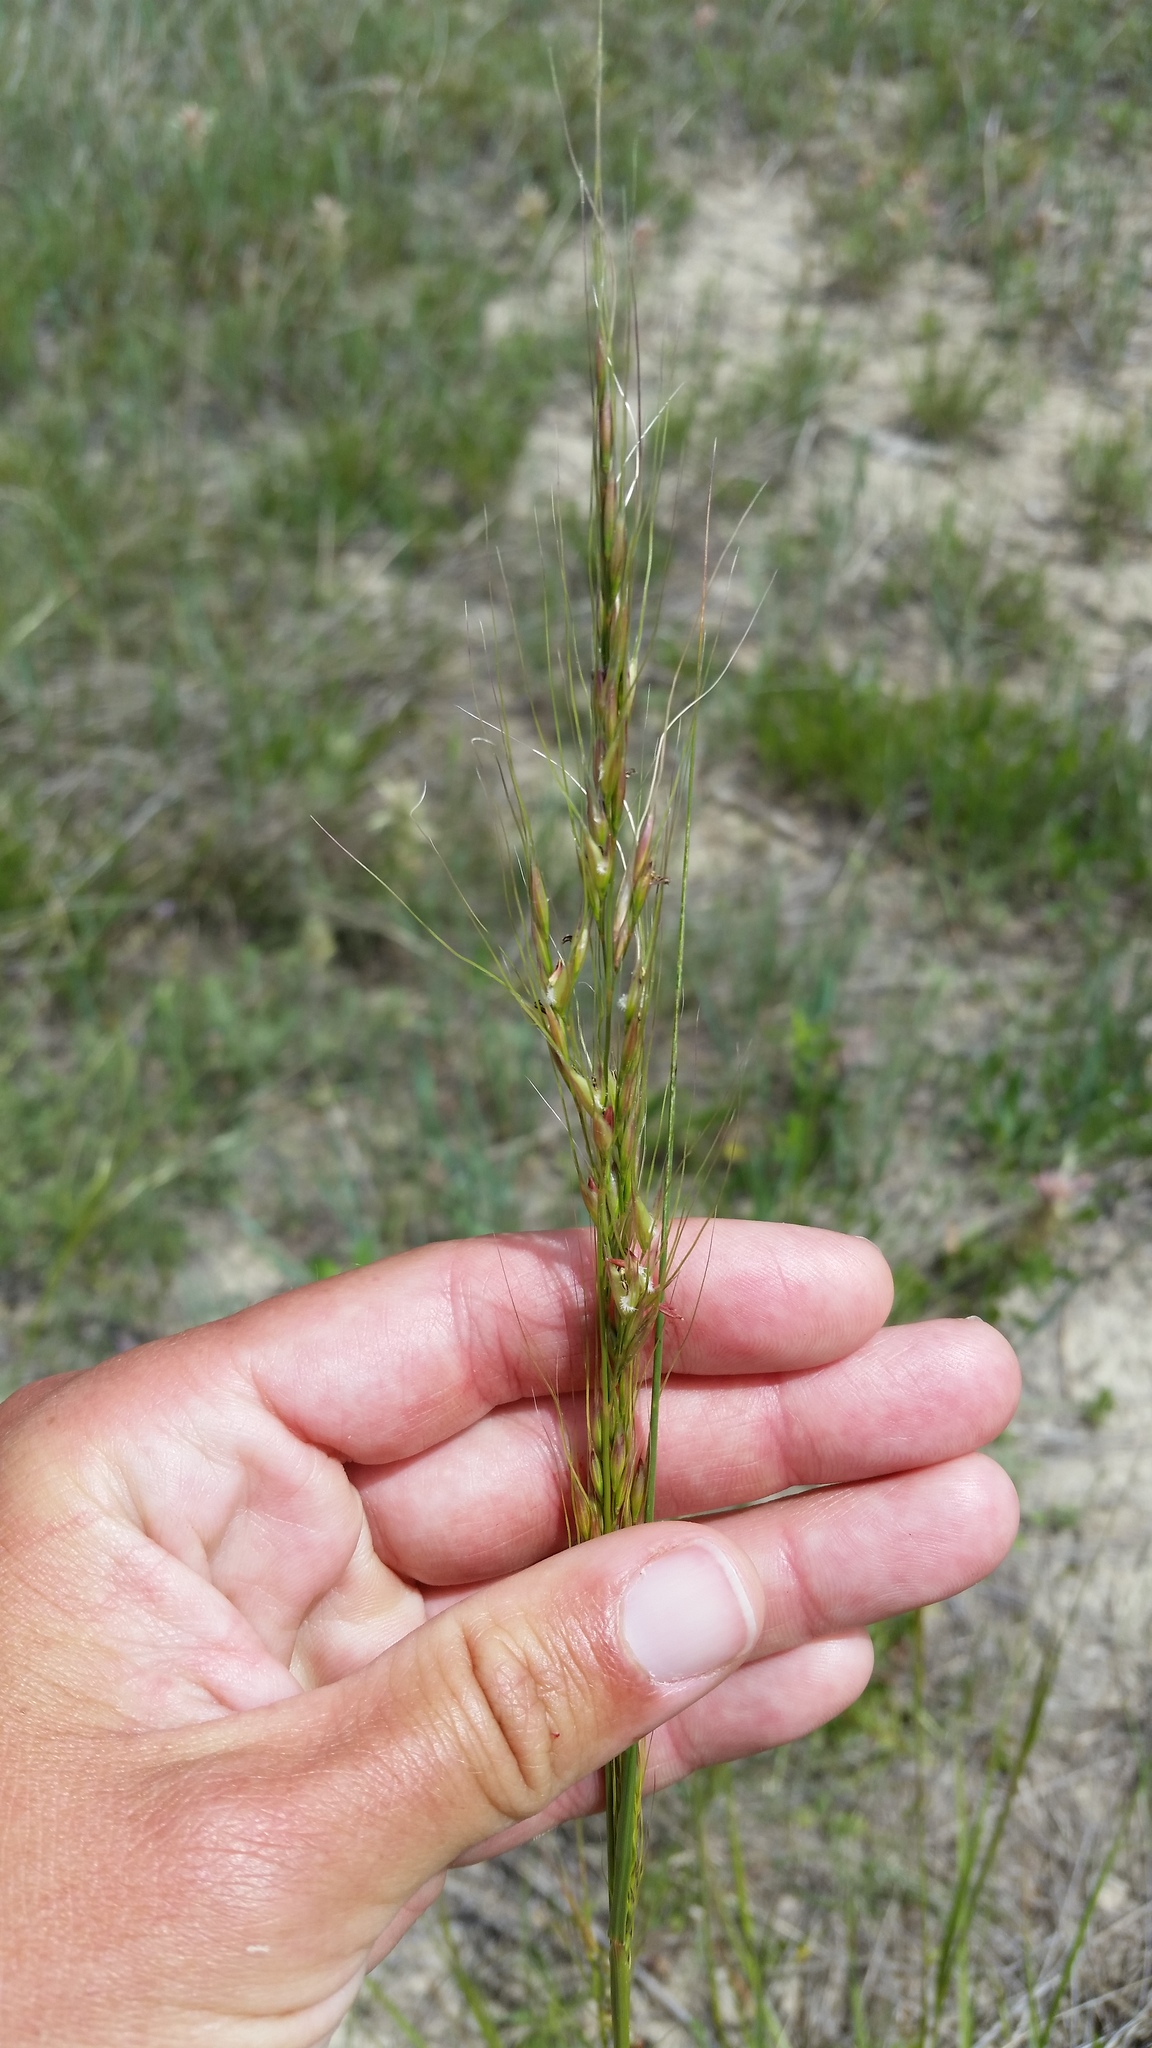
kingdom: Plantae
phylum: Tracheophyta
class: Liliopsida
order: Poales
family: Poaceae
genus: Nassella
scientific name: Nassella viridula
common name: Green needlegrass
